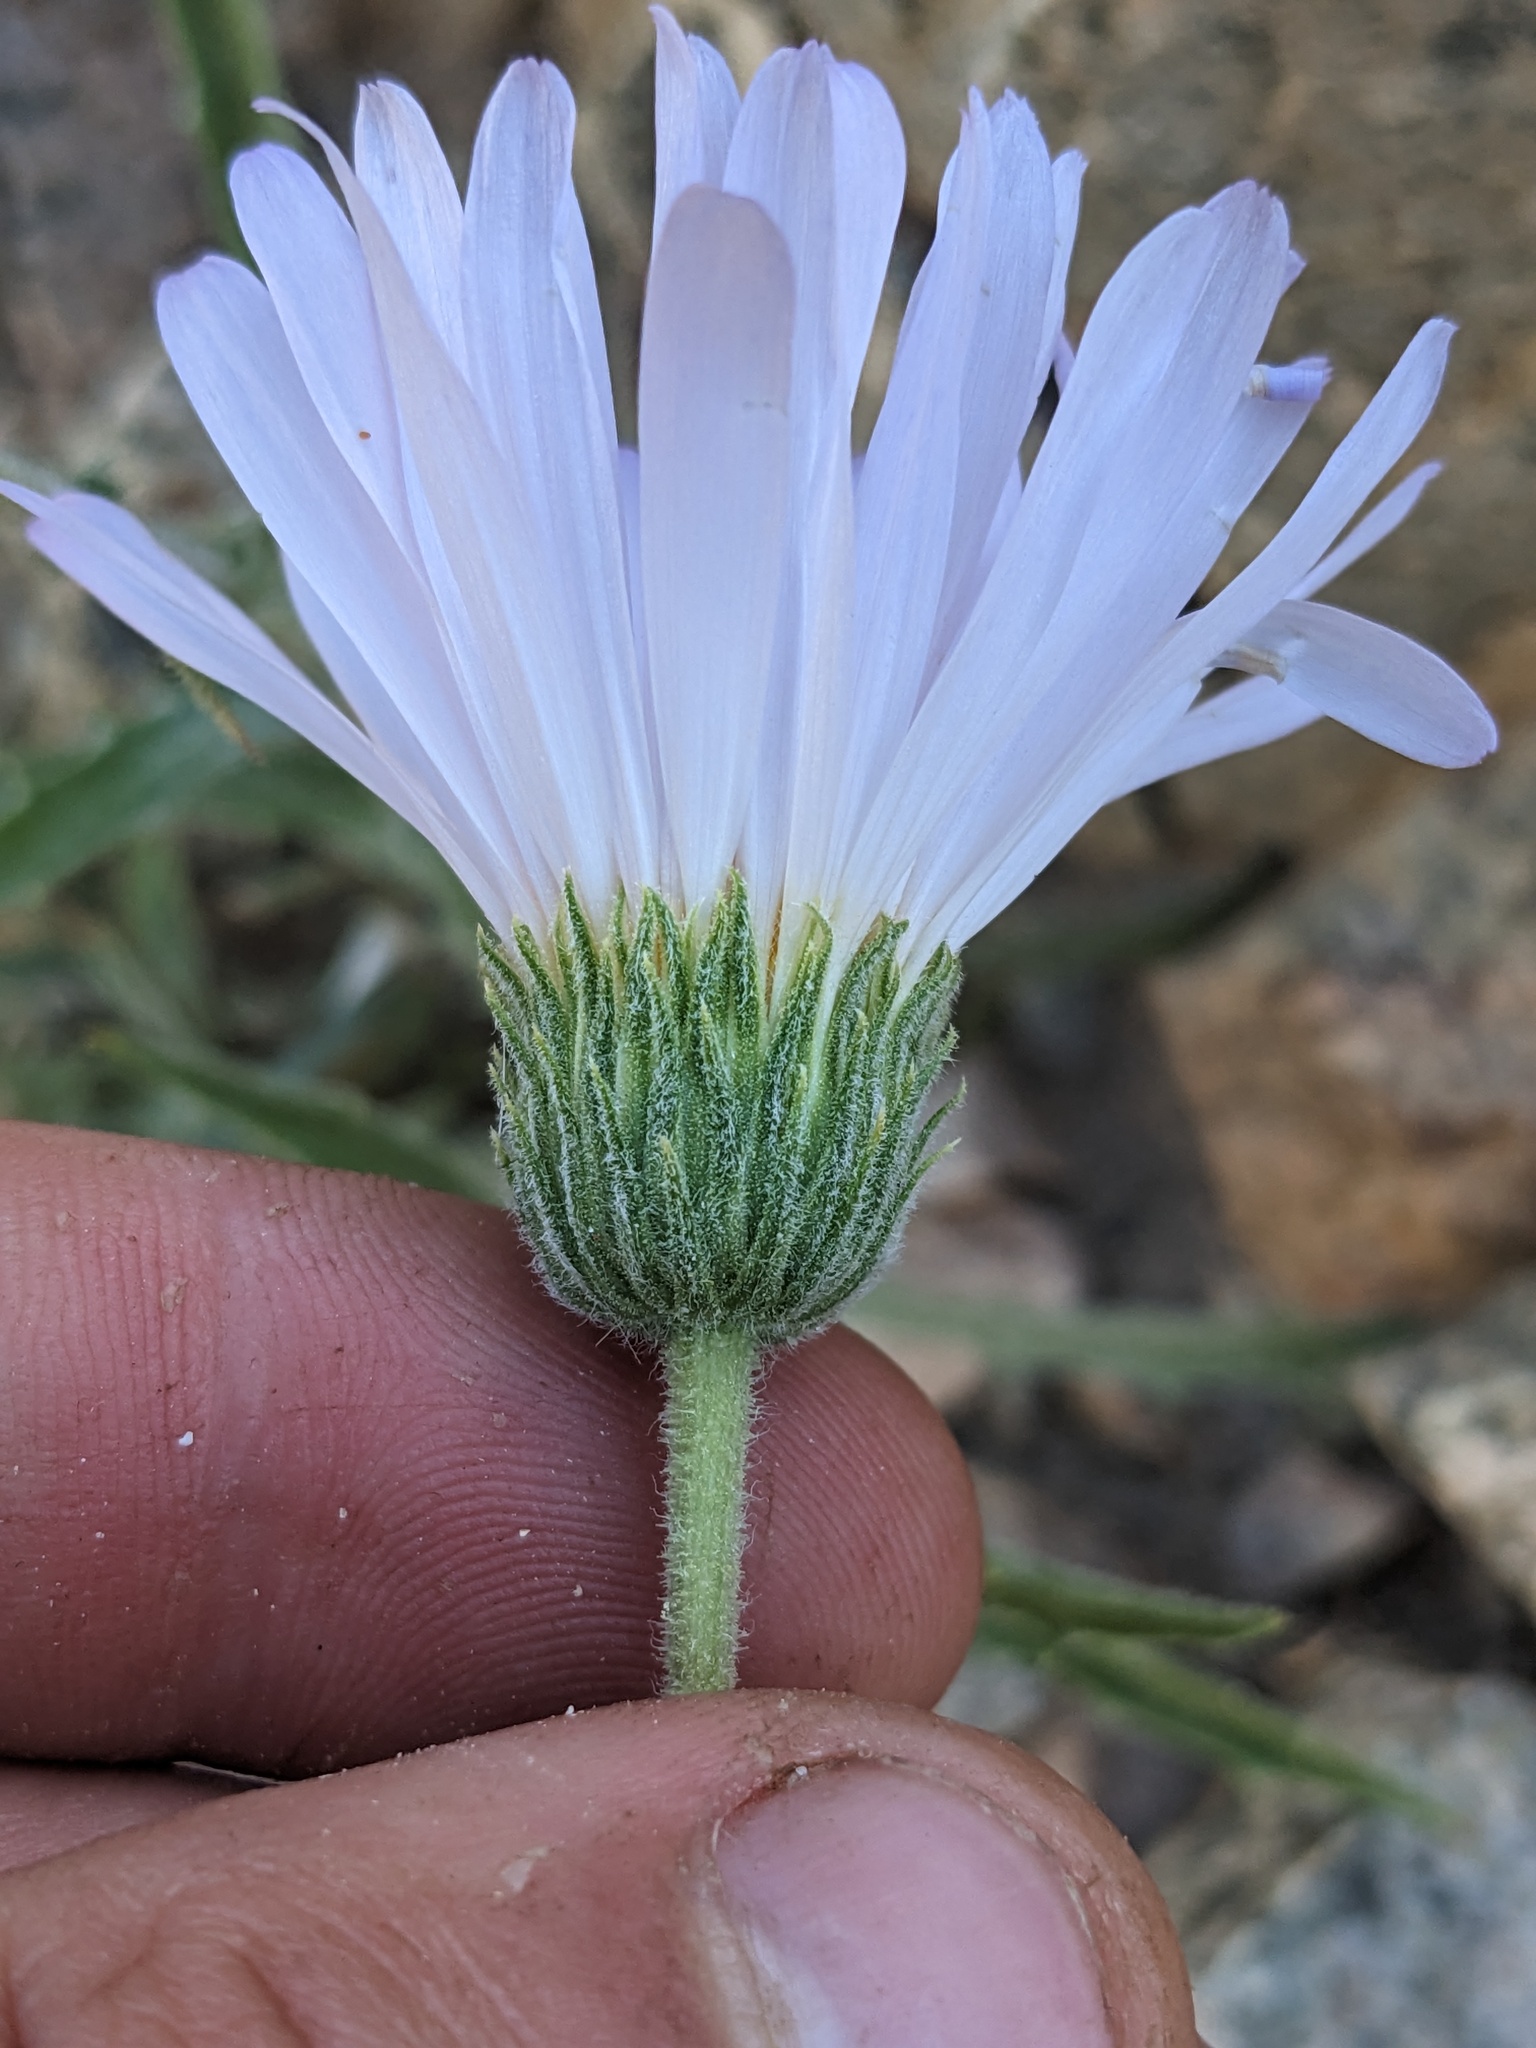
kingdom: Plantae
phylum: Tracheophyta
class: Magnoliopsida
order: Asterales
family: Asteraceae
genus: Xylorhiza
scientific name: Xylorhiza tortifolia
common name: Hurt-leaf woody-aster
